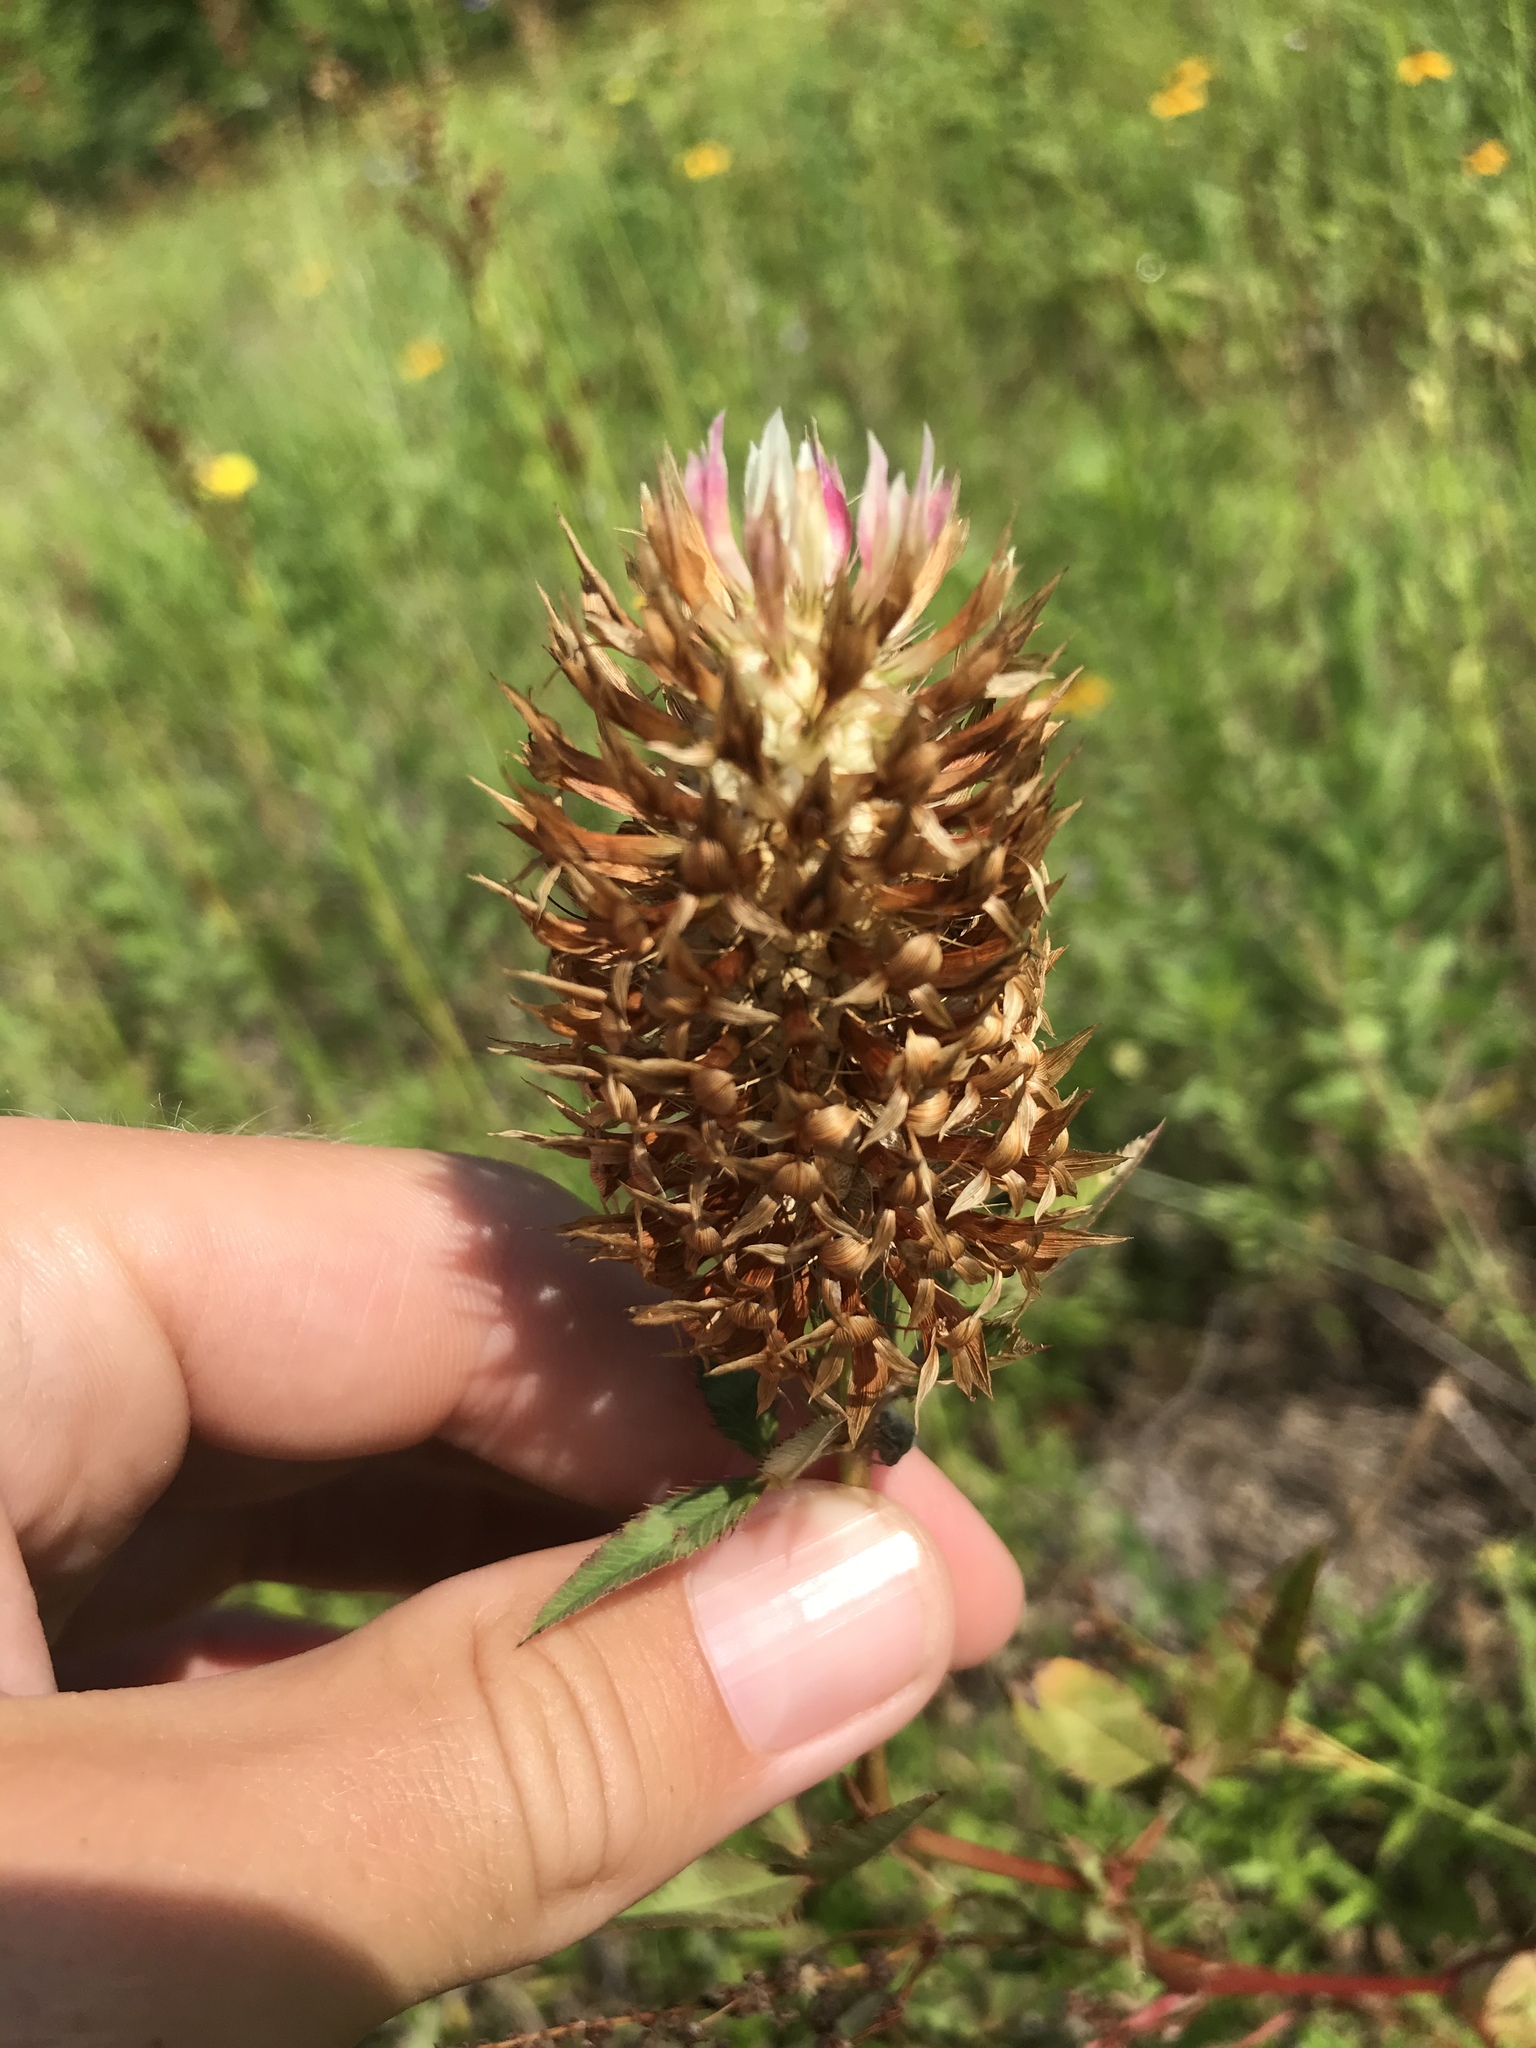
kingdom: Plantae
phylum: Tracheophyta
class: Magnoliopsida
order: Fabales
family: Fabaceae
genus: Trifolium
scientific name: Trifolium vesiculosum
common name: Arrowleaf clover
